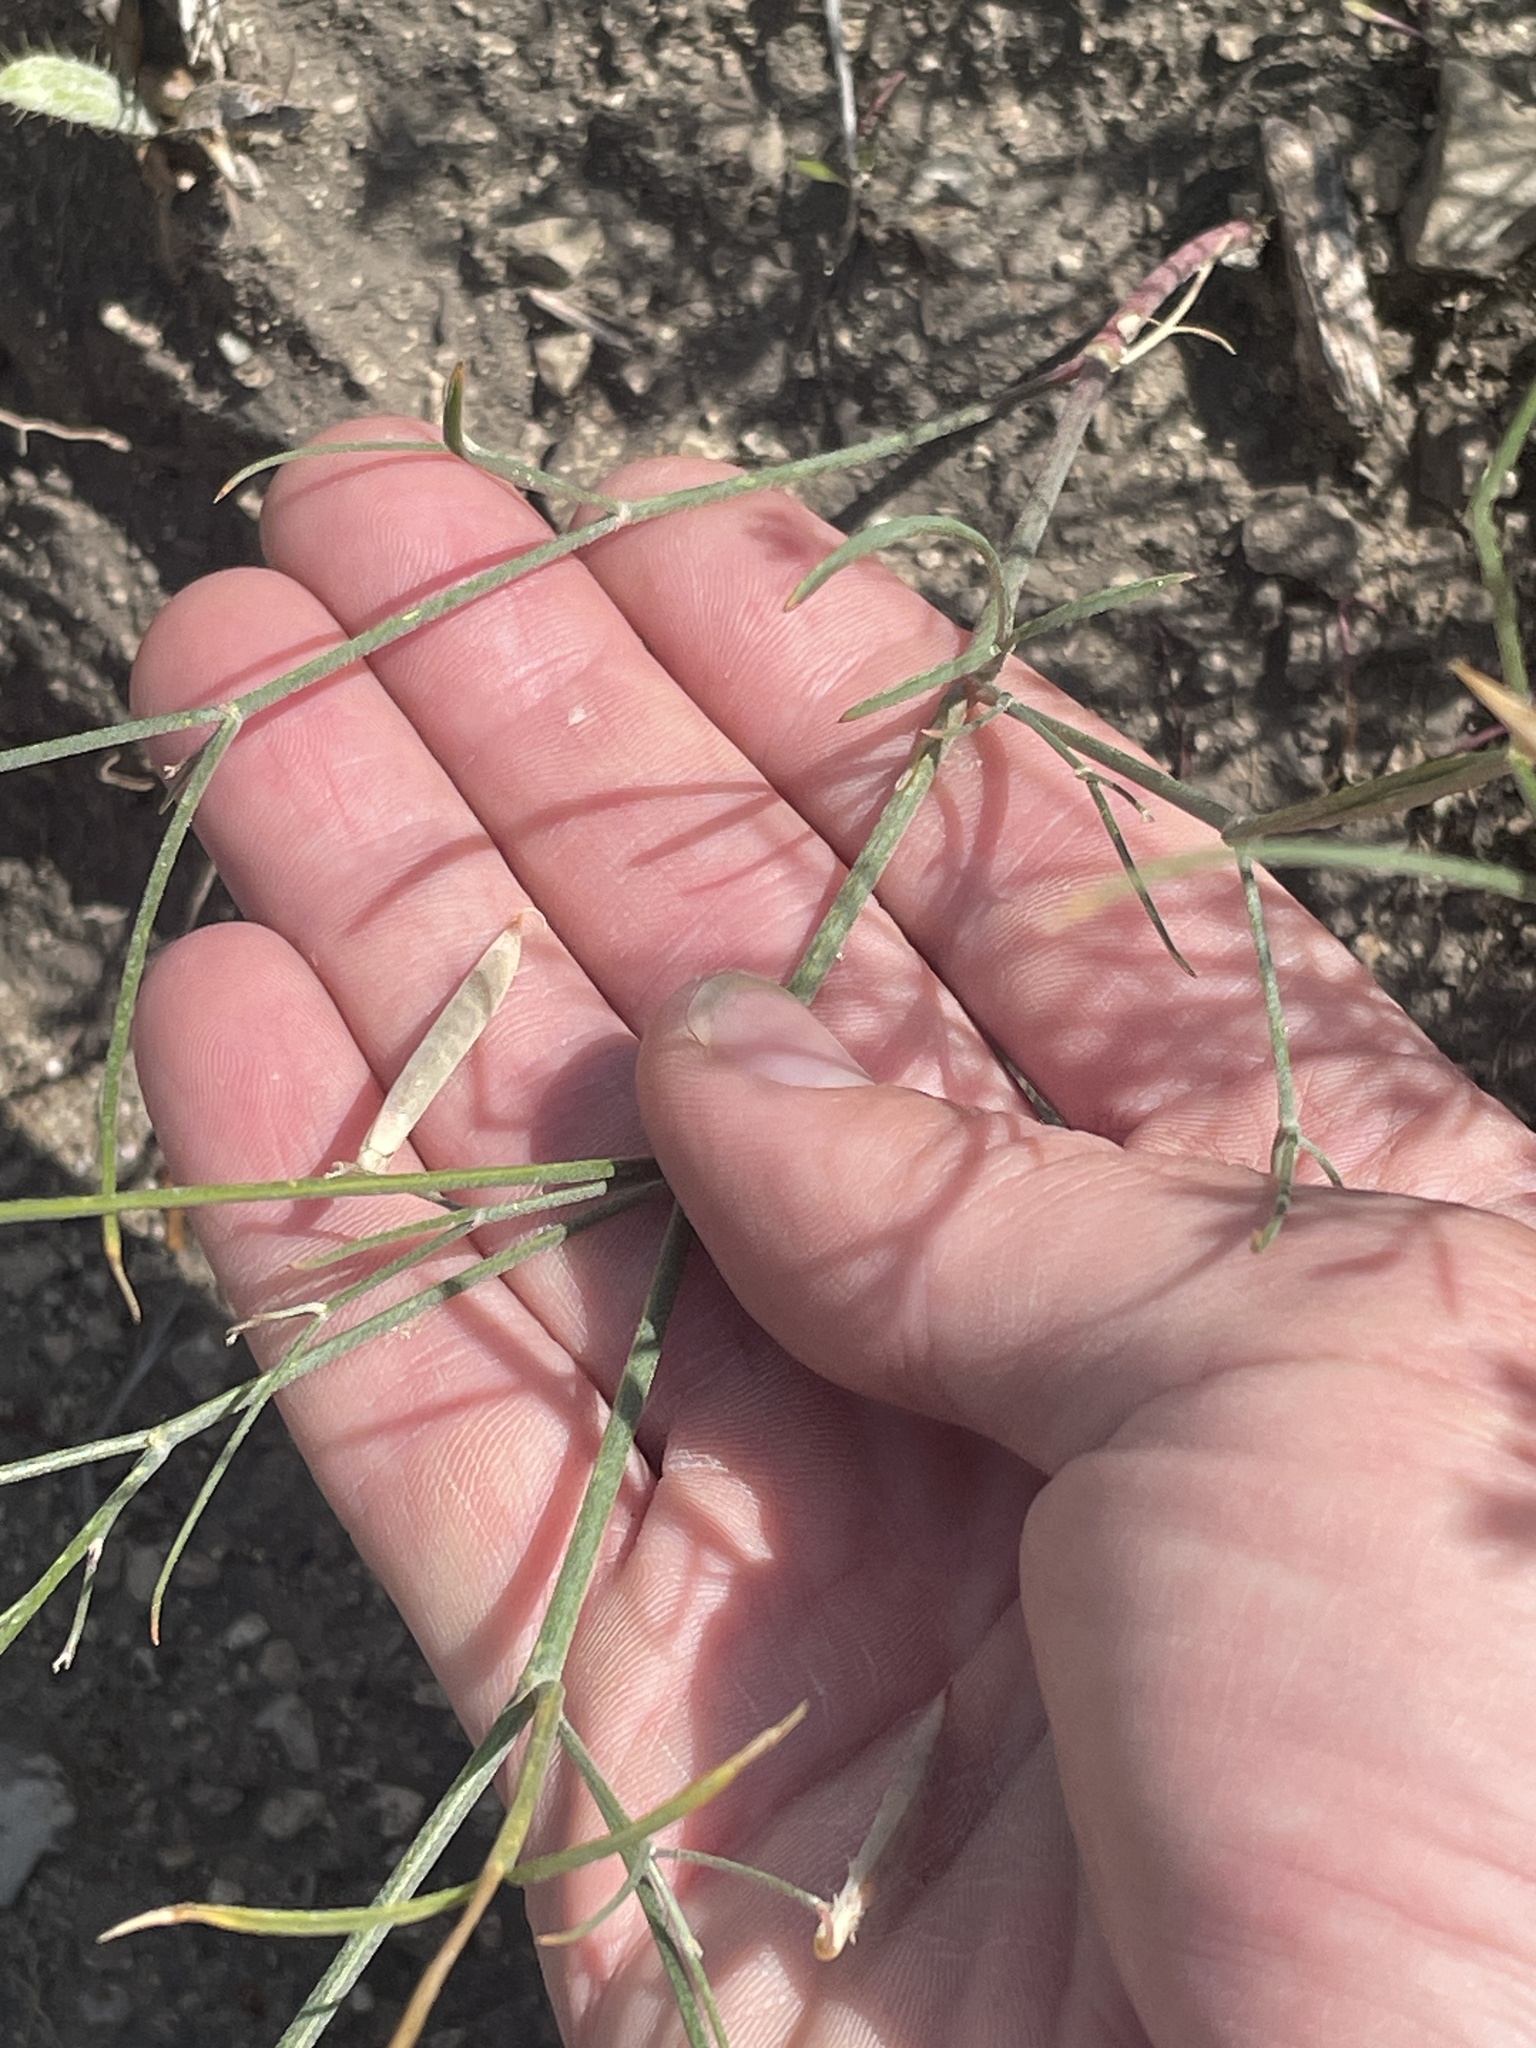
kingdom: Plantae
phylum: Tracheophyta
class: Magnoliopsida
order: Fabales
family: Fabaceae
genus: Astragalus
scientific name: Astragalus convallarius
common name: Lesser rushy milk-vetch
